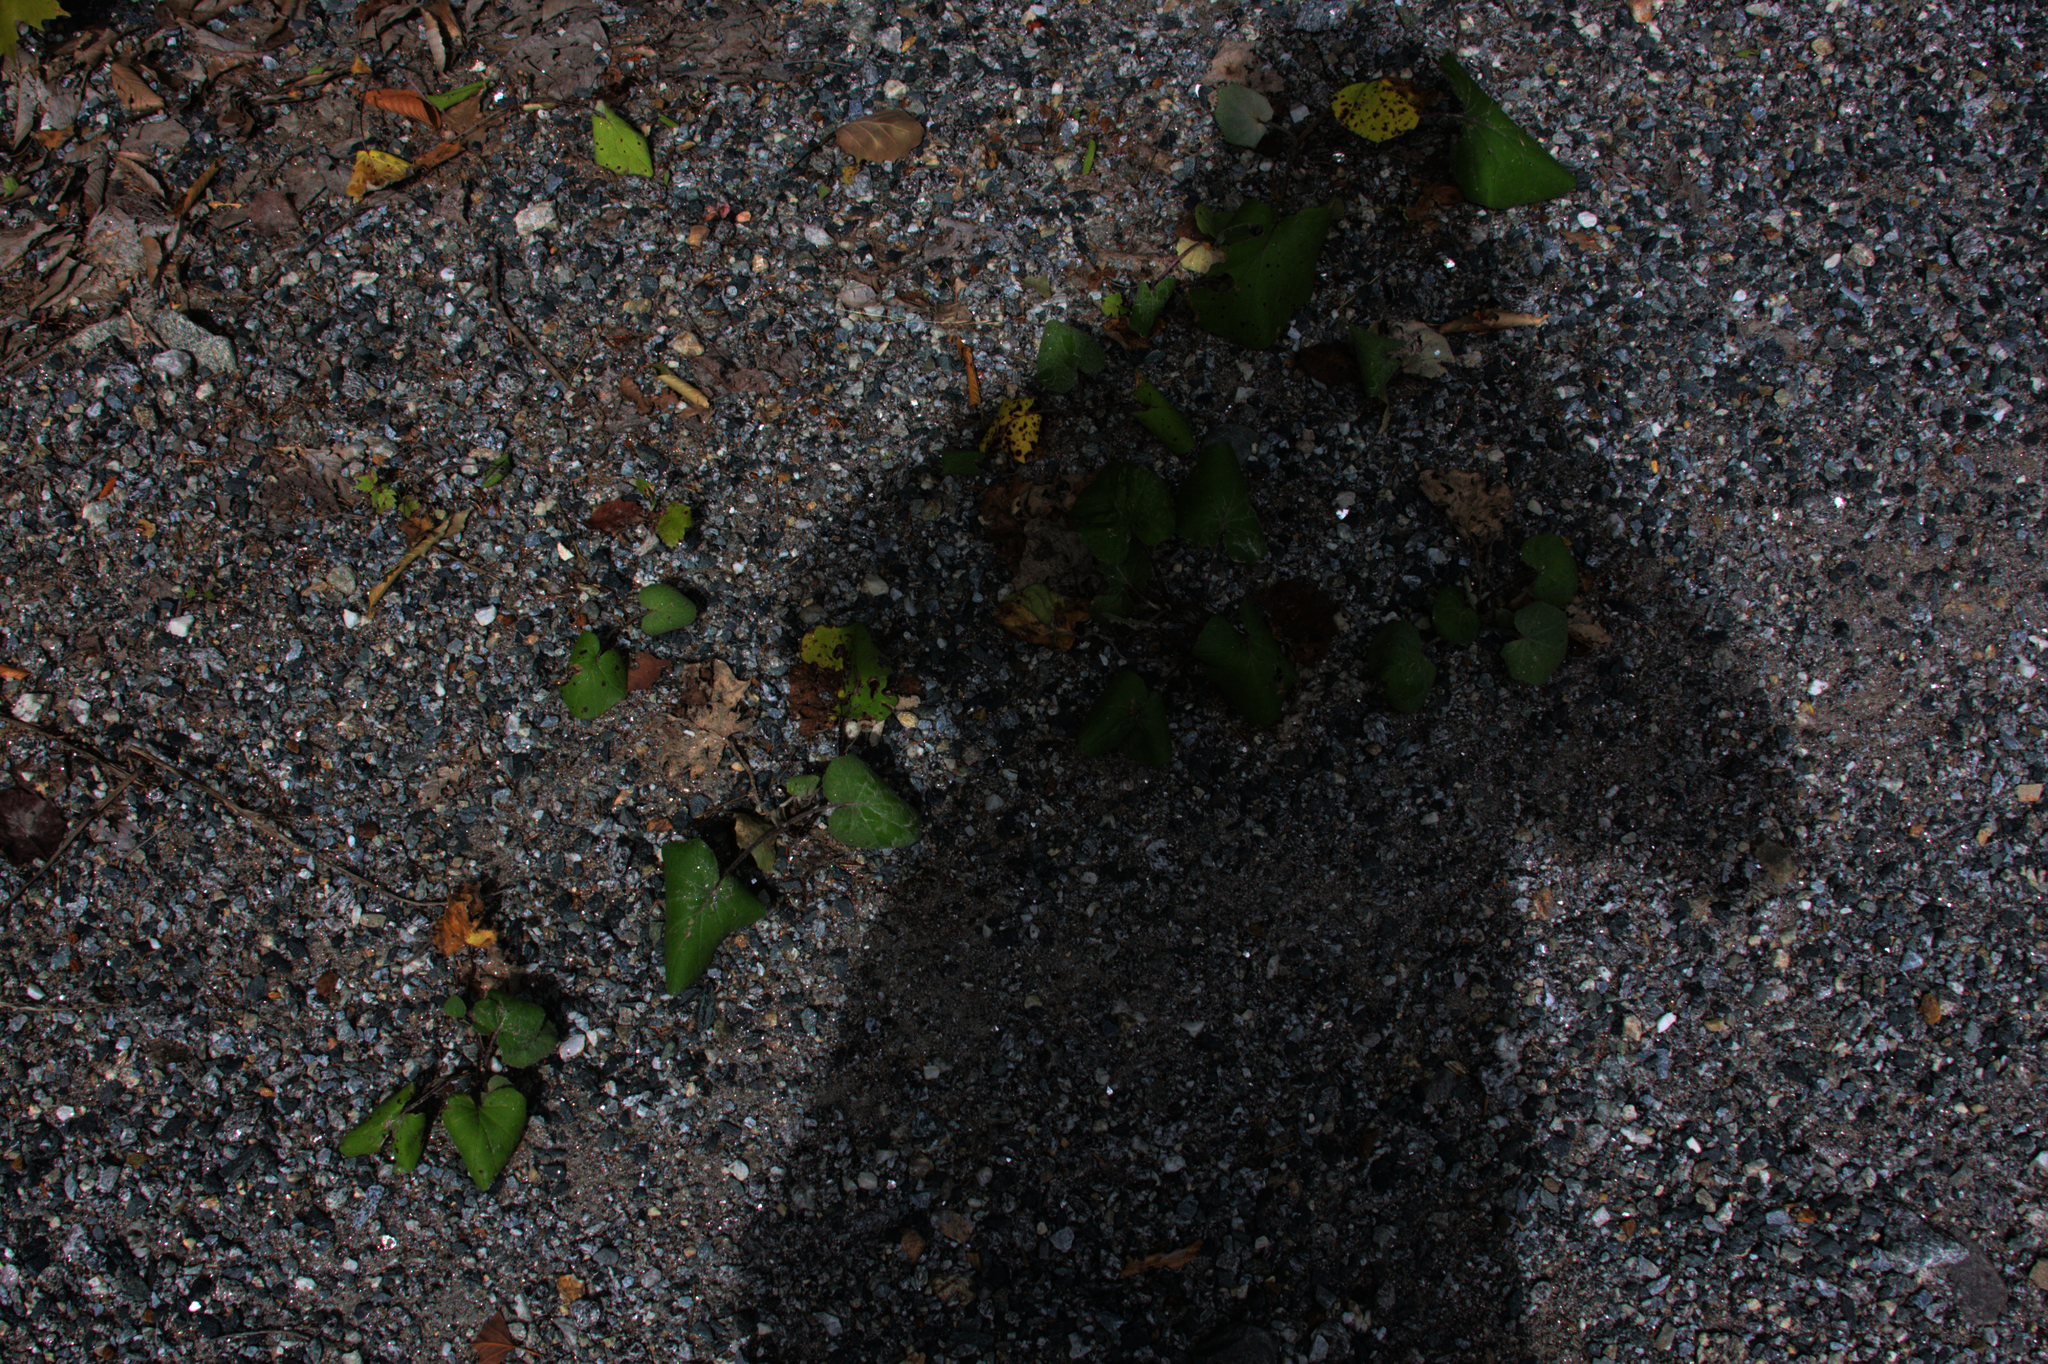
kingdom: Plantae
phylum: Tracheophyta
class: Magnoliopsida
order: Asterales
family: Asteraceae
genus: Tussilago
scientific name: Tussilago farfara
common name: Coltsfoot
